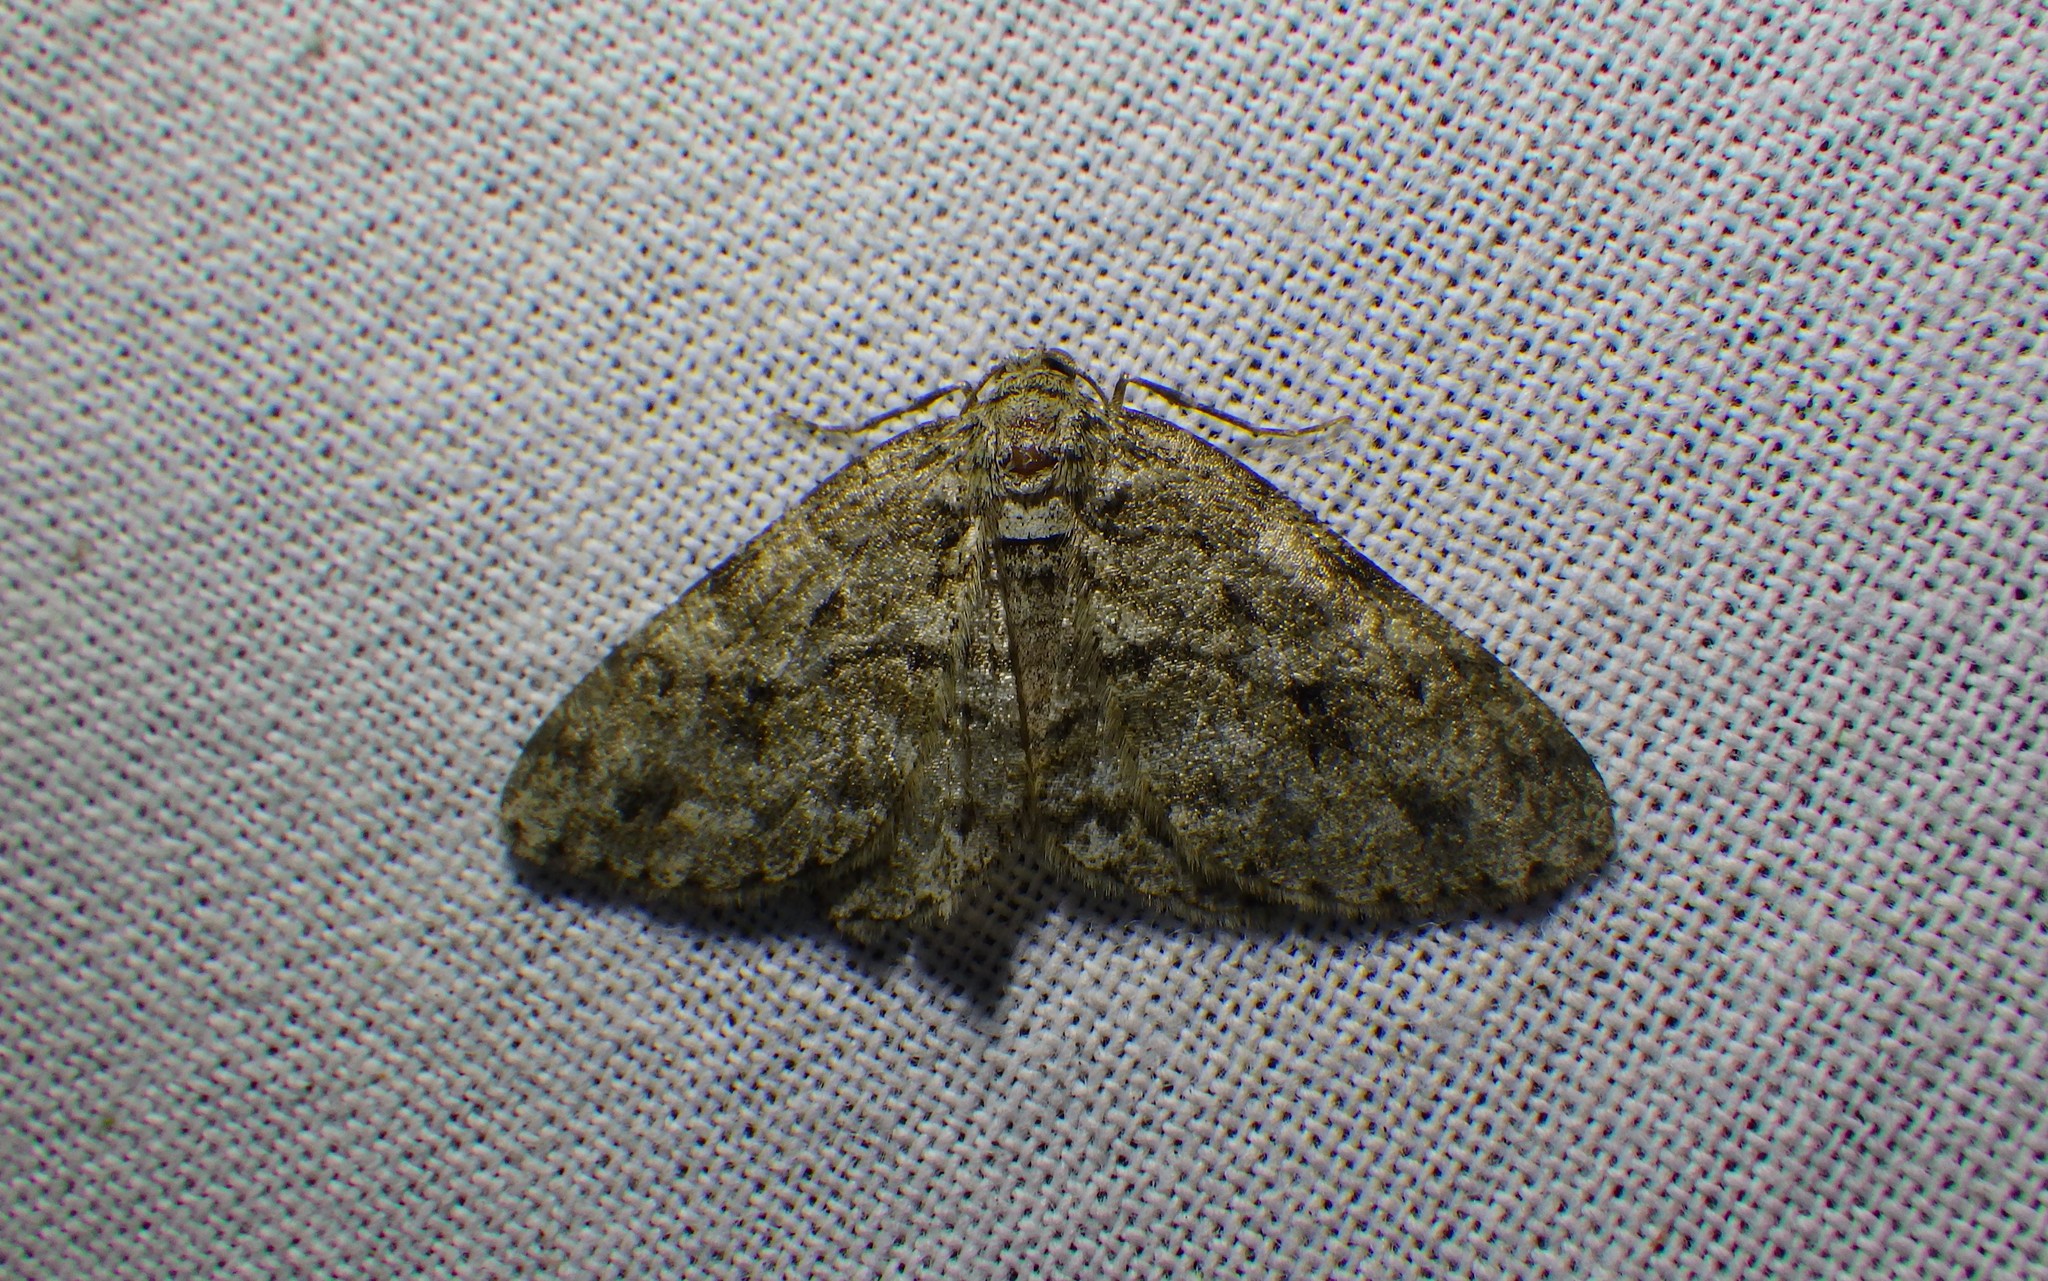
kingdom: Animalia
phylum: Arthropoda
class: Insecta
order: Lepidoptera
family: Geometridae
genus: Ectropis
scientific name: Ectropis crepuscularia
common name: Engrailed
